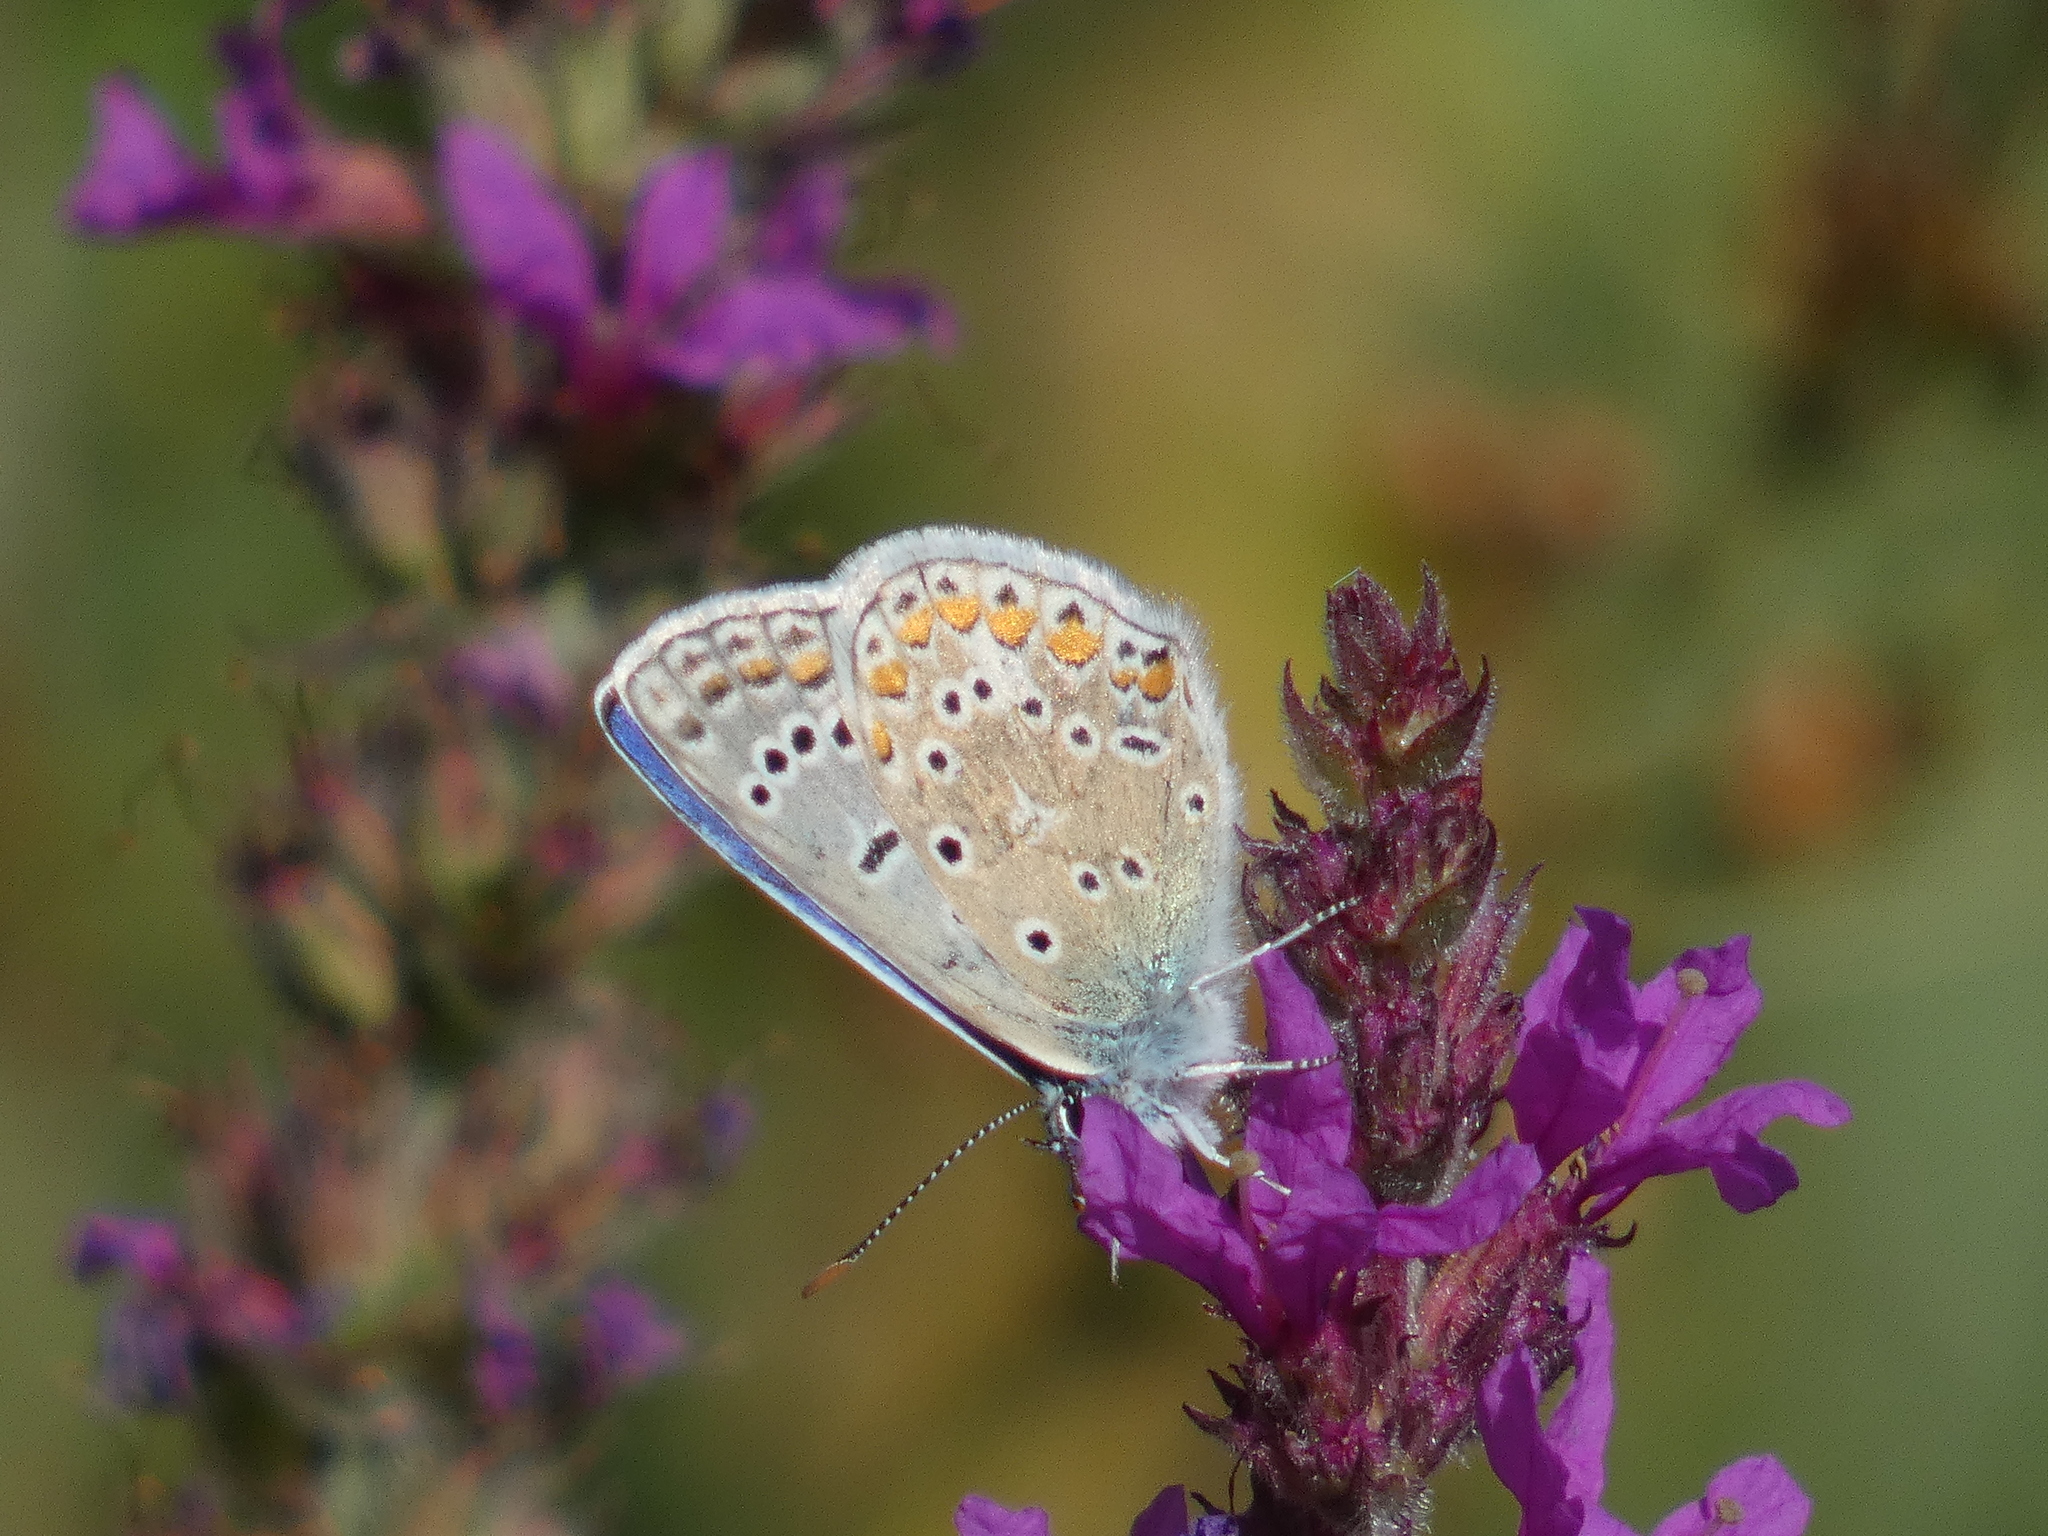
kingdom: Animalia
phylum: Arthropoda
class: Insecta
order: Lepidoptera
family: Lycaenidae
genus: Polyommatus
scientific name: Polyommatus icarus
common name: Common blue
